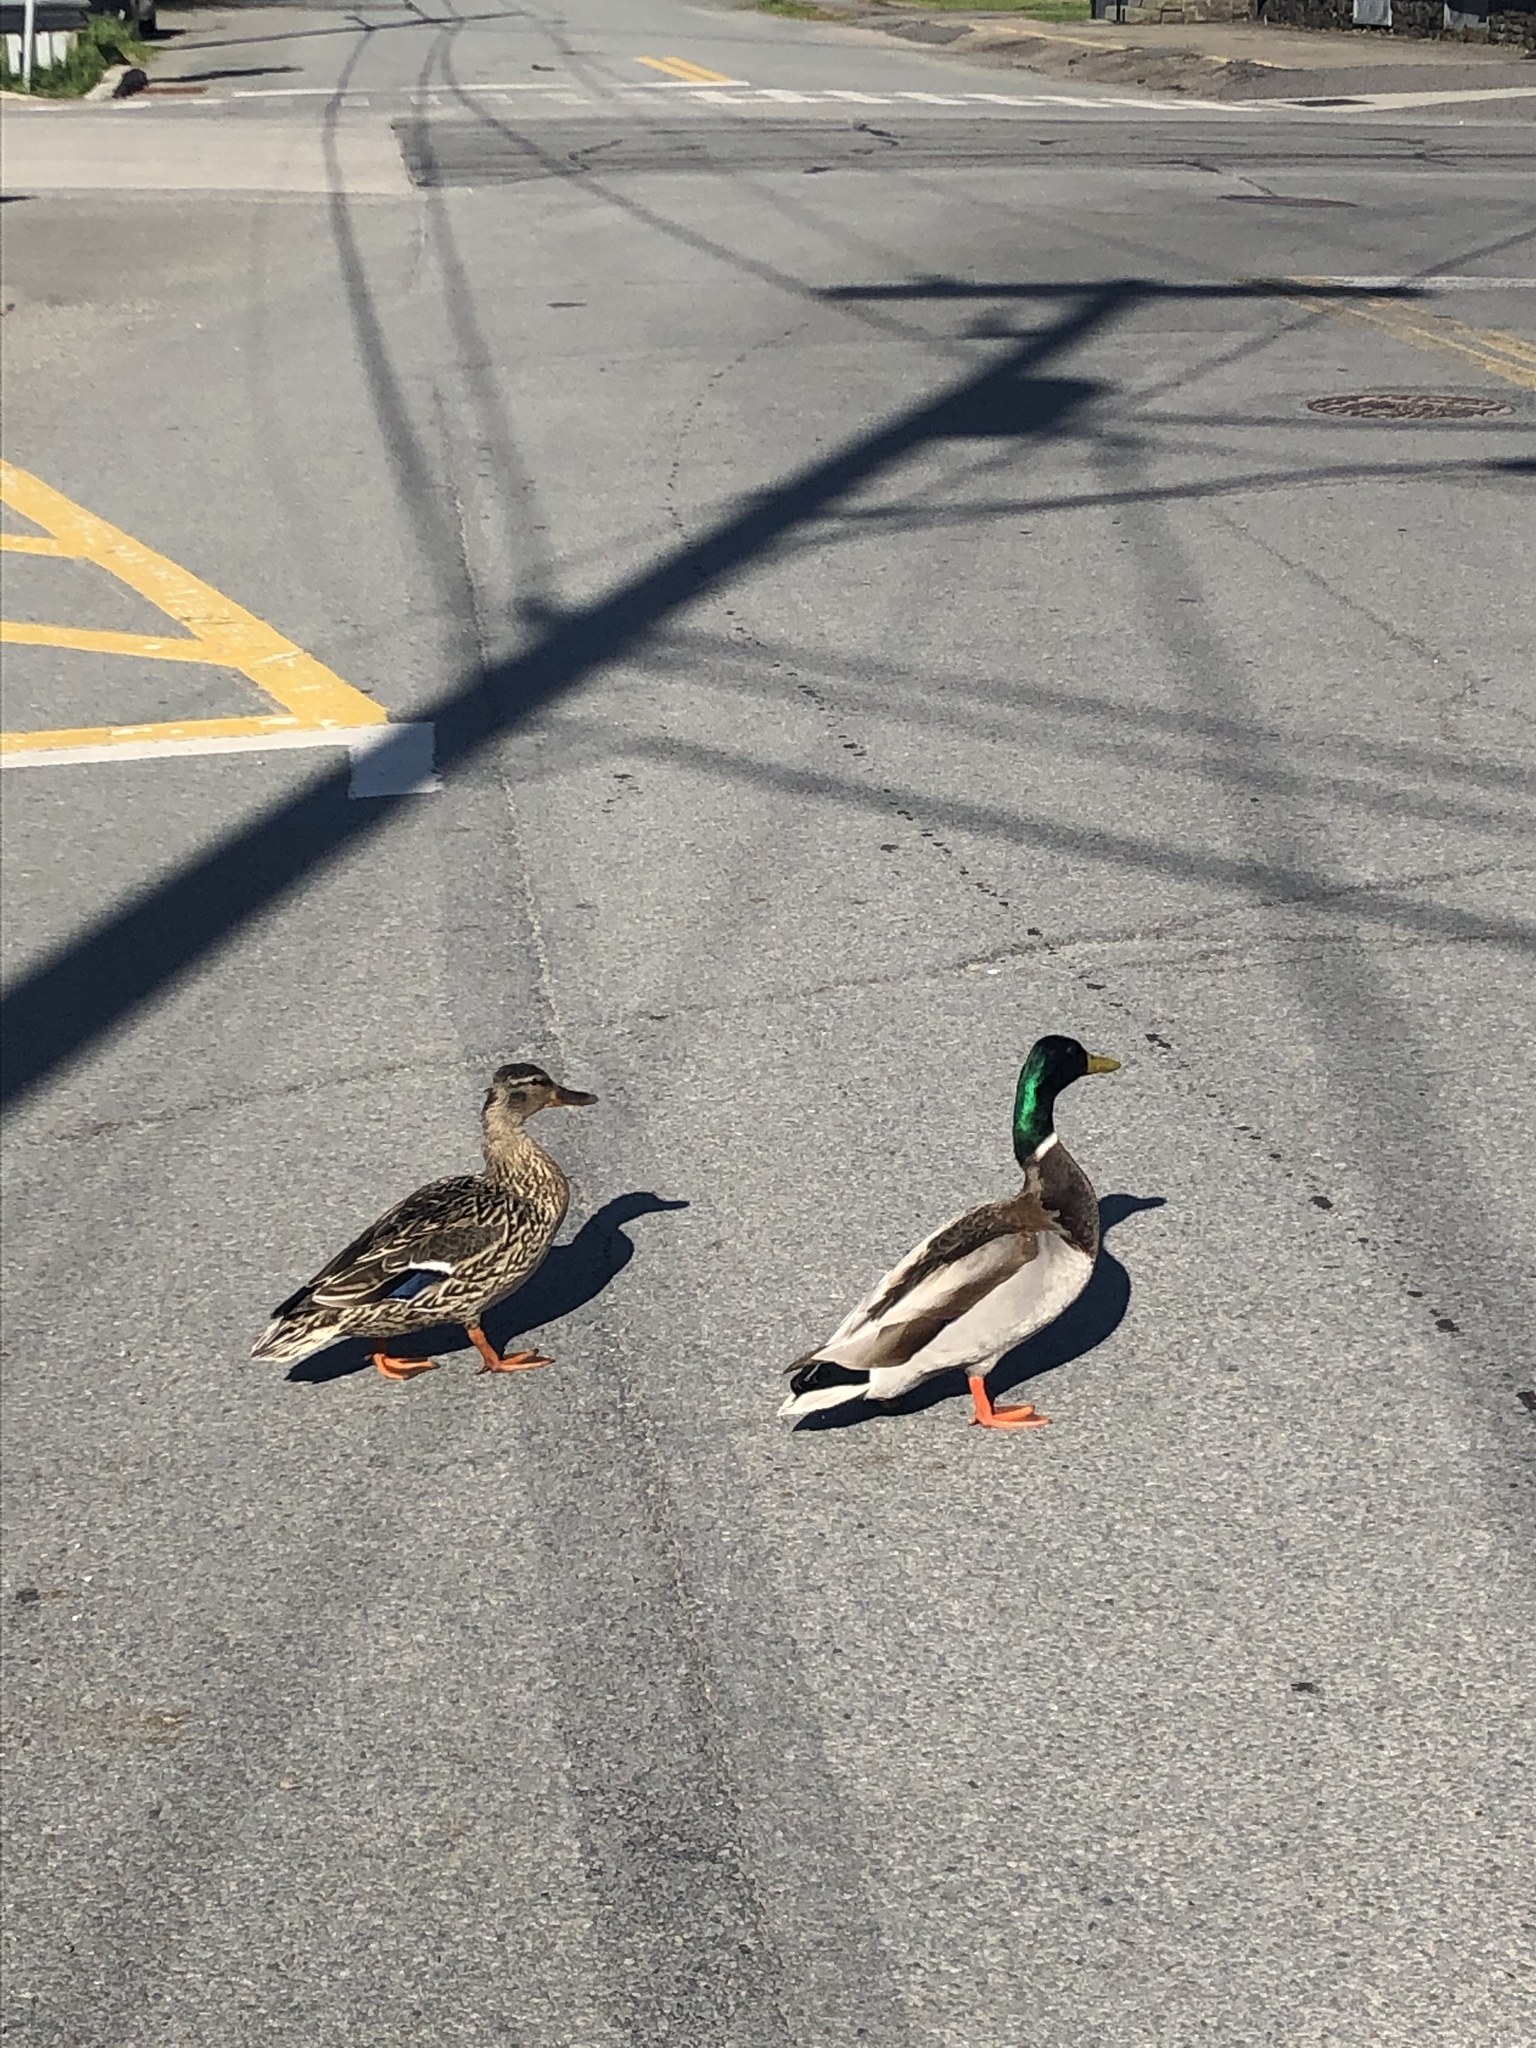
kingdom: Animalia
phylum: Chordata
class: Aves
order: Anseriformes
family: Anatidae
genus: Anas
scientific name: Anas platyrhynchos
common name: Mallard
